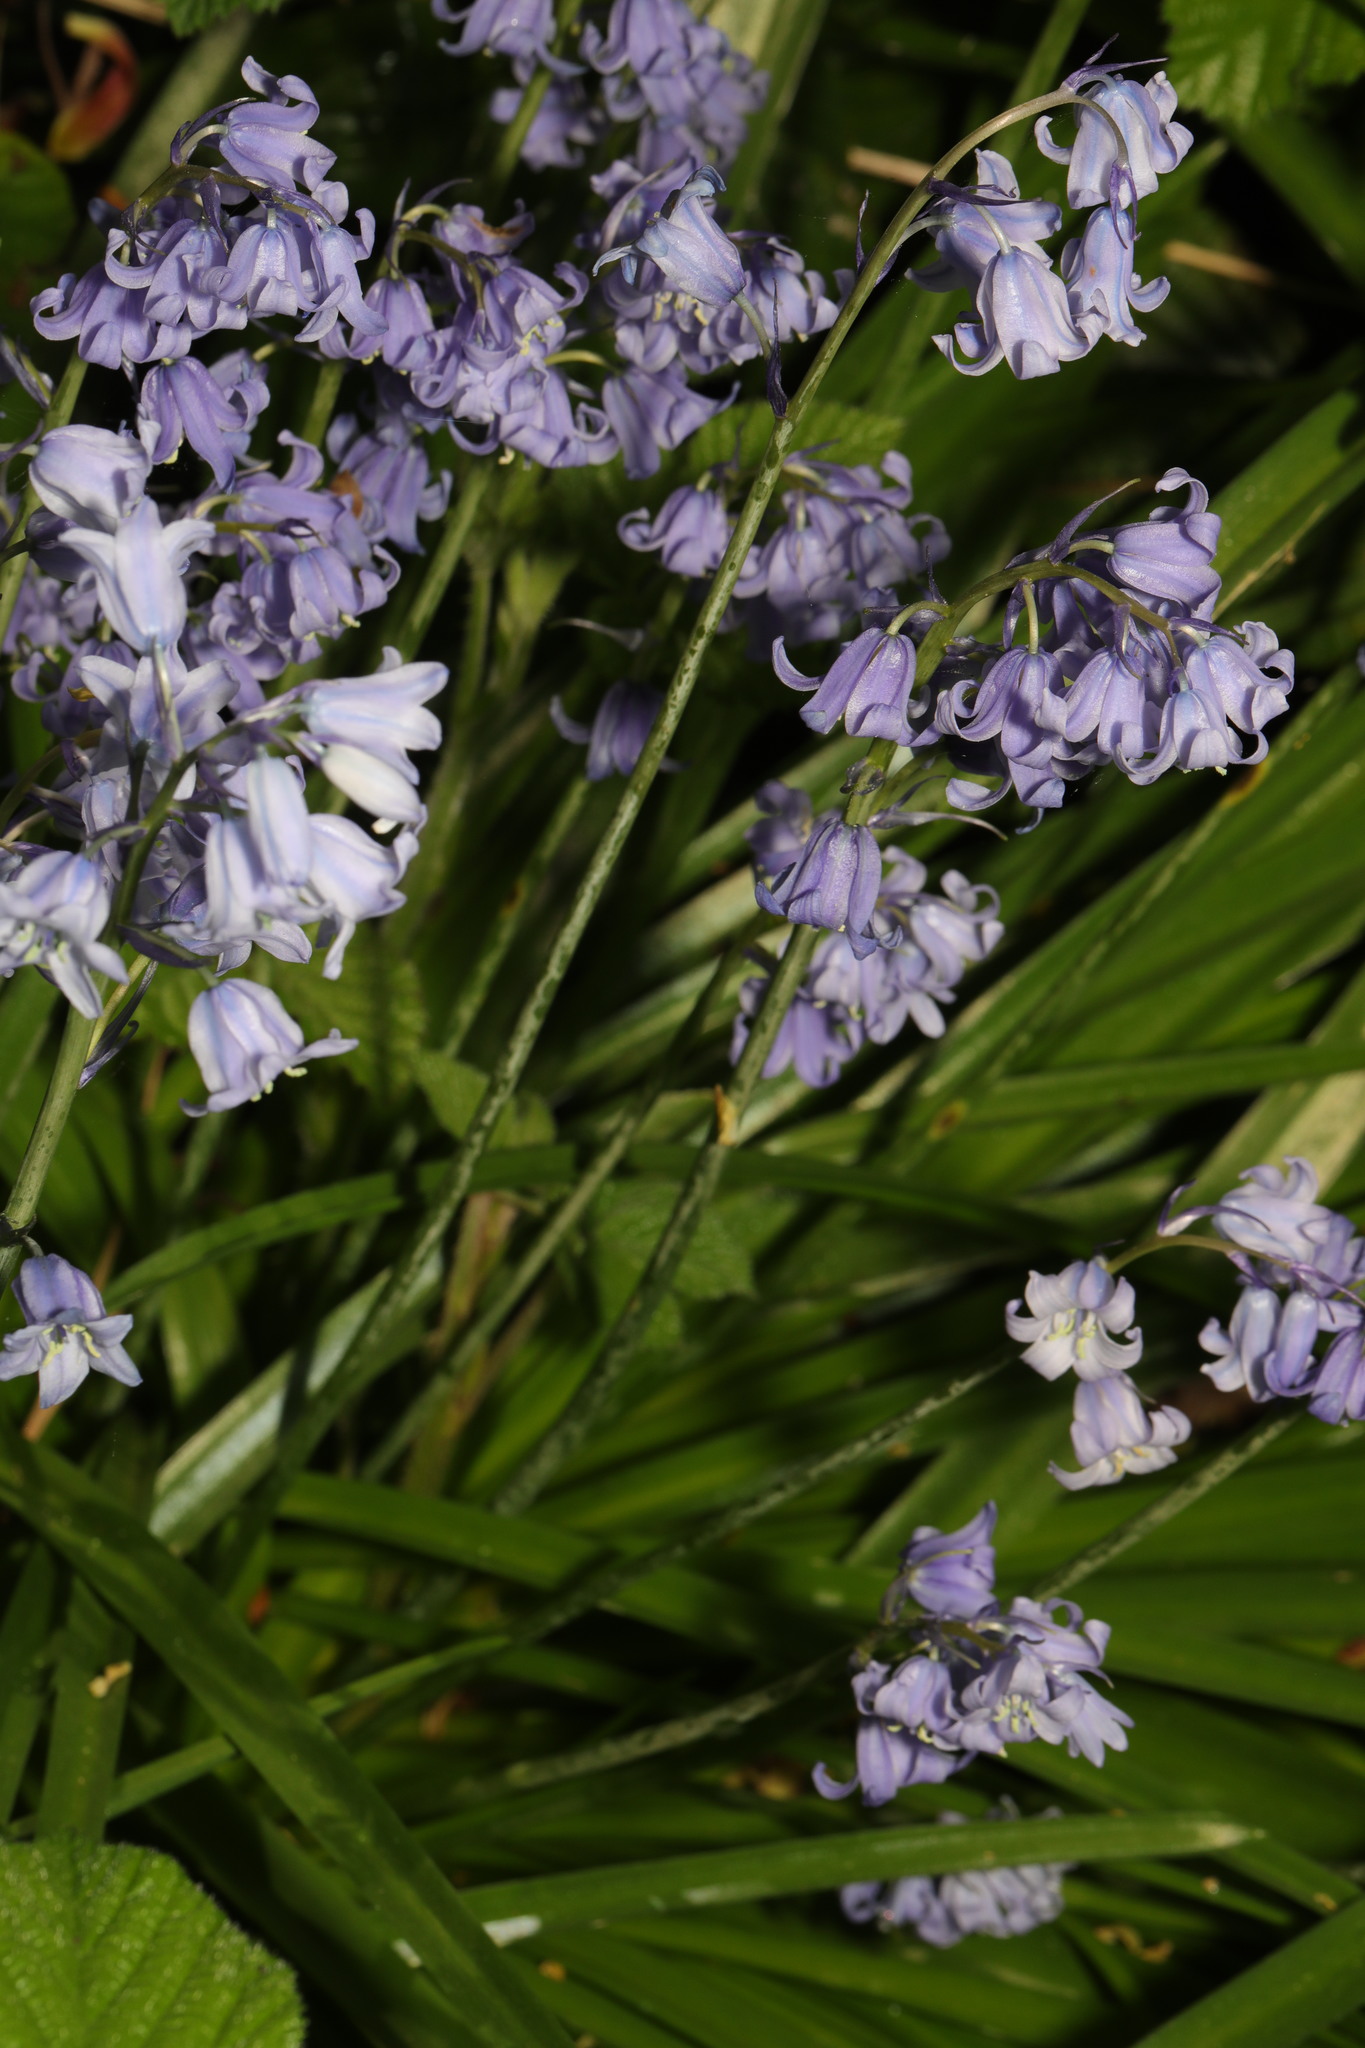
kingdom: Plantae
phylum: Tracheophyta
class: Liliopsida
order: Asparagales
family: Asparagaceae
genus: Hyacinthoides
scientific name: Hyacinthoides hispanica
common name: Spanish bluebell
